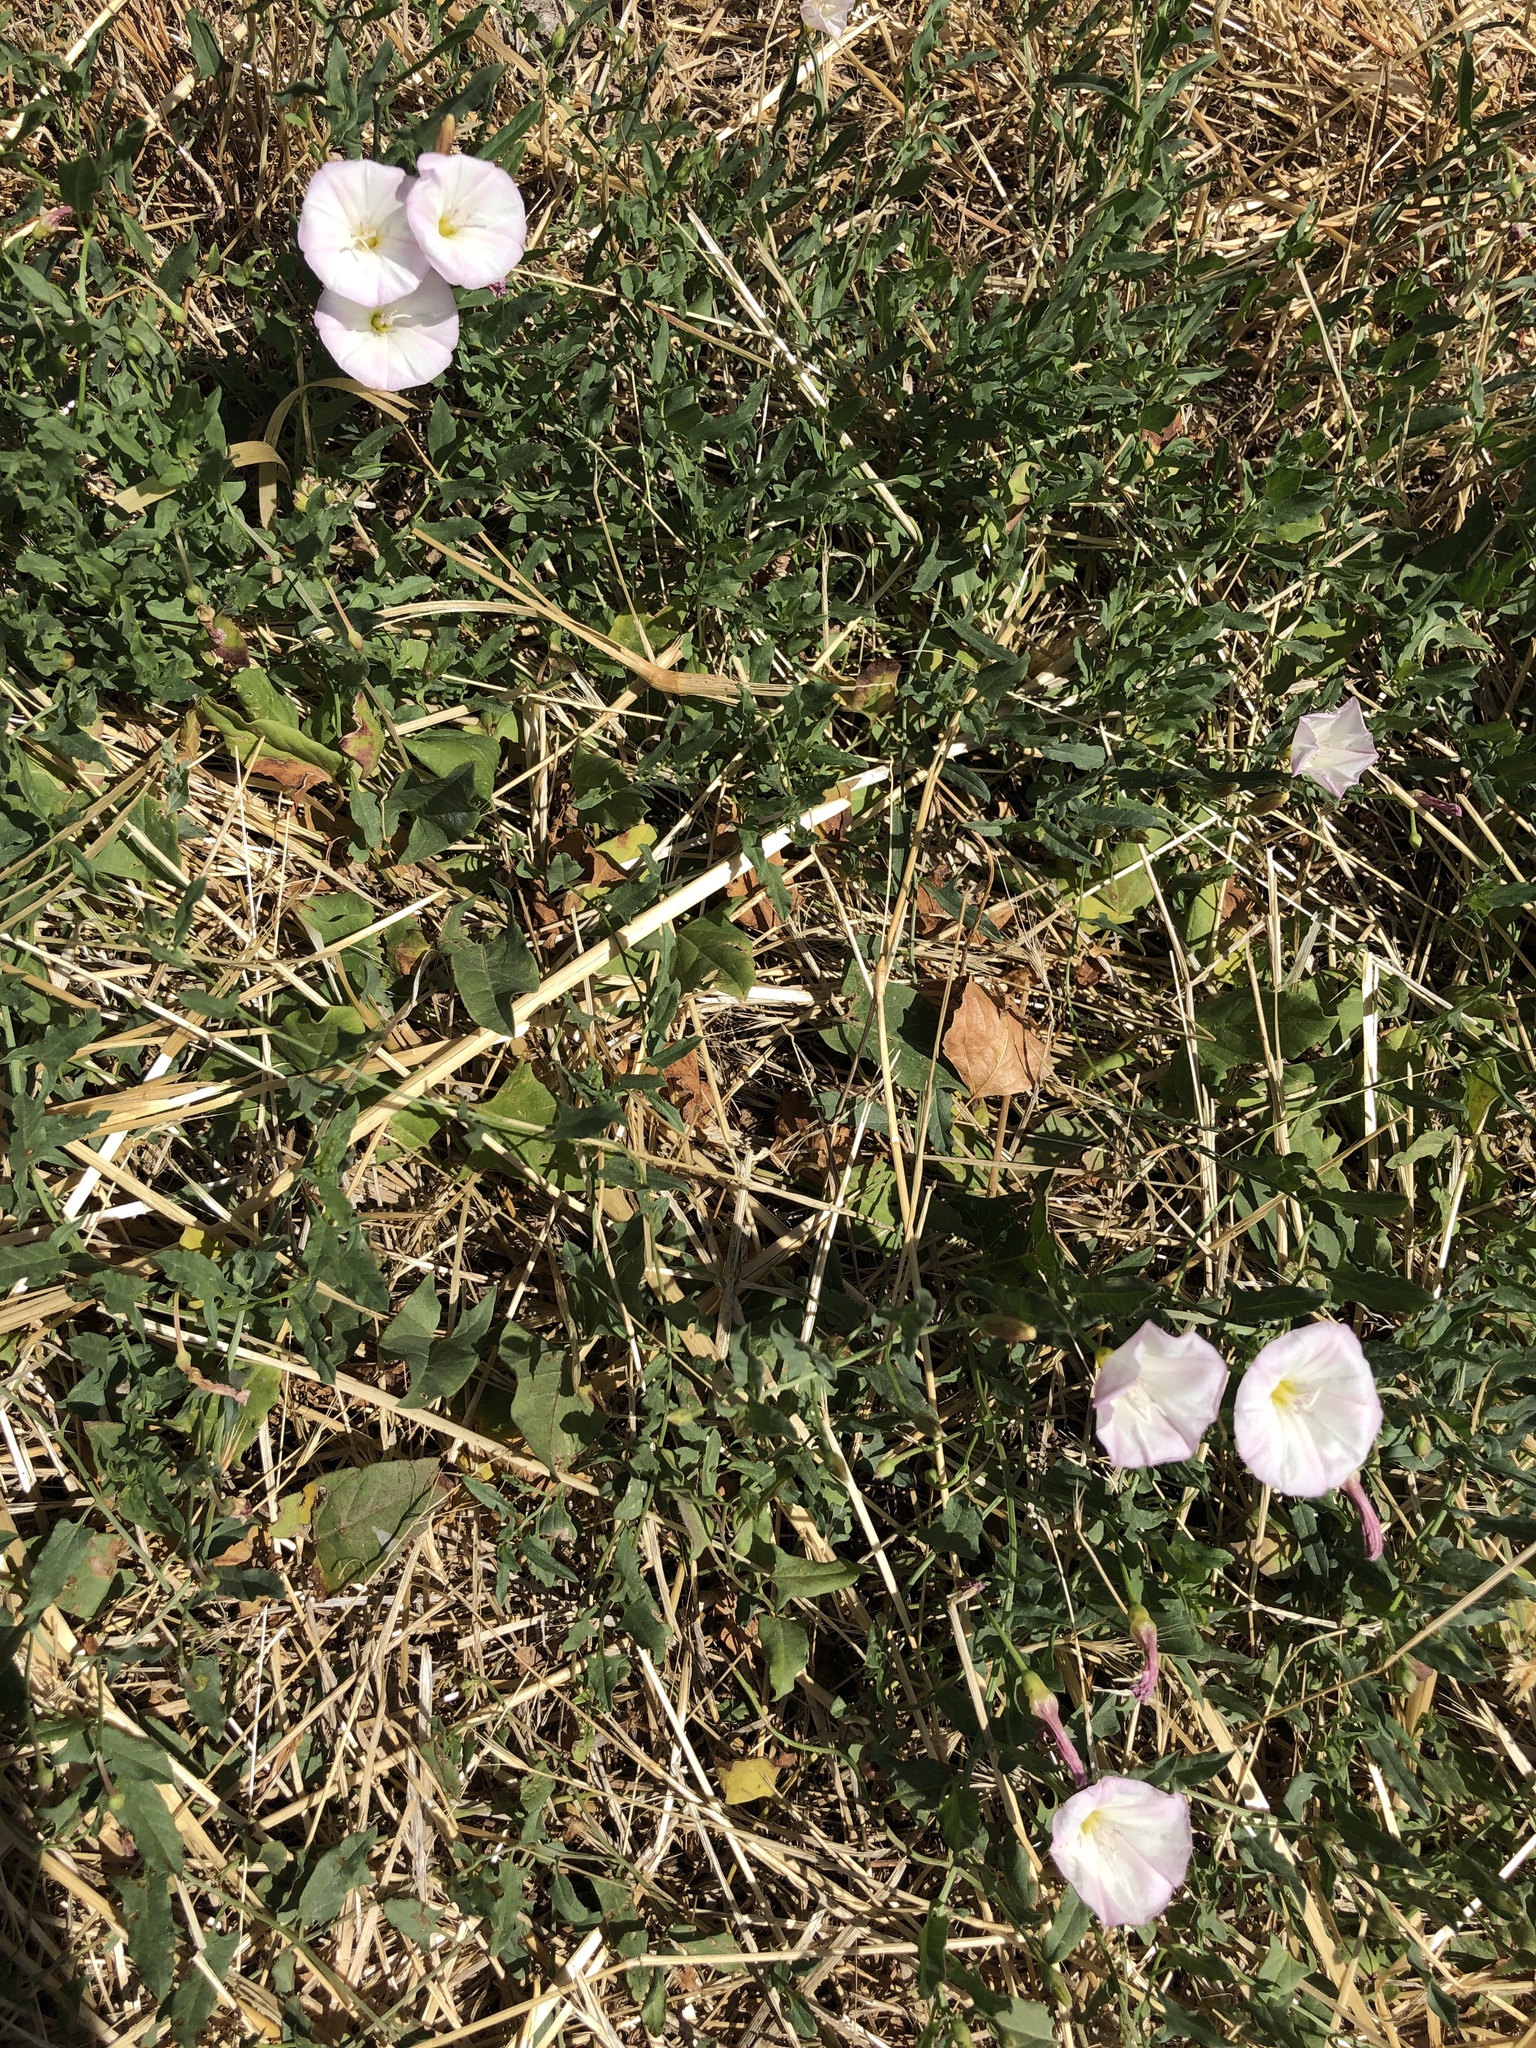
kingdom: Plantae
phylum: Tracheophyta
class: Magnoliopsida
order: Solanales
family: Convolvulaceae
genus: Convolvulus
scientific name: Convolvulus arvensis
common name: Field bindweed
